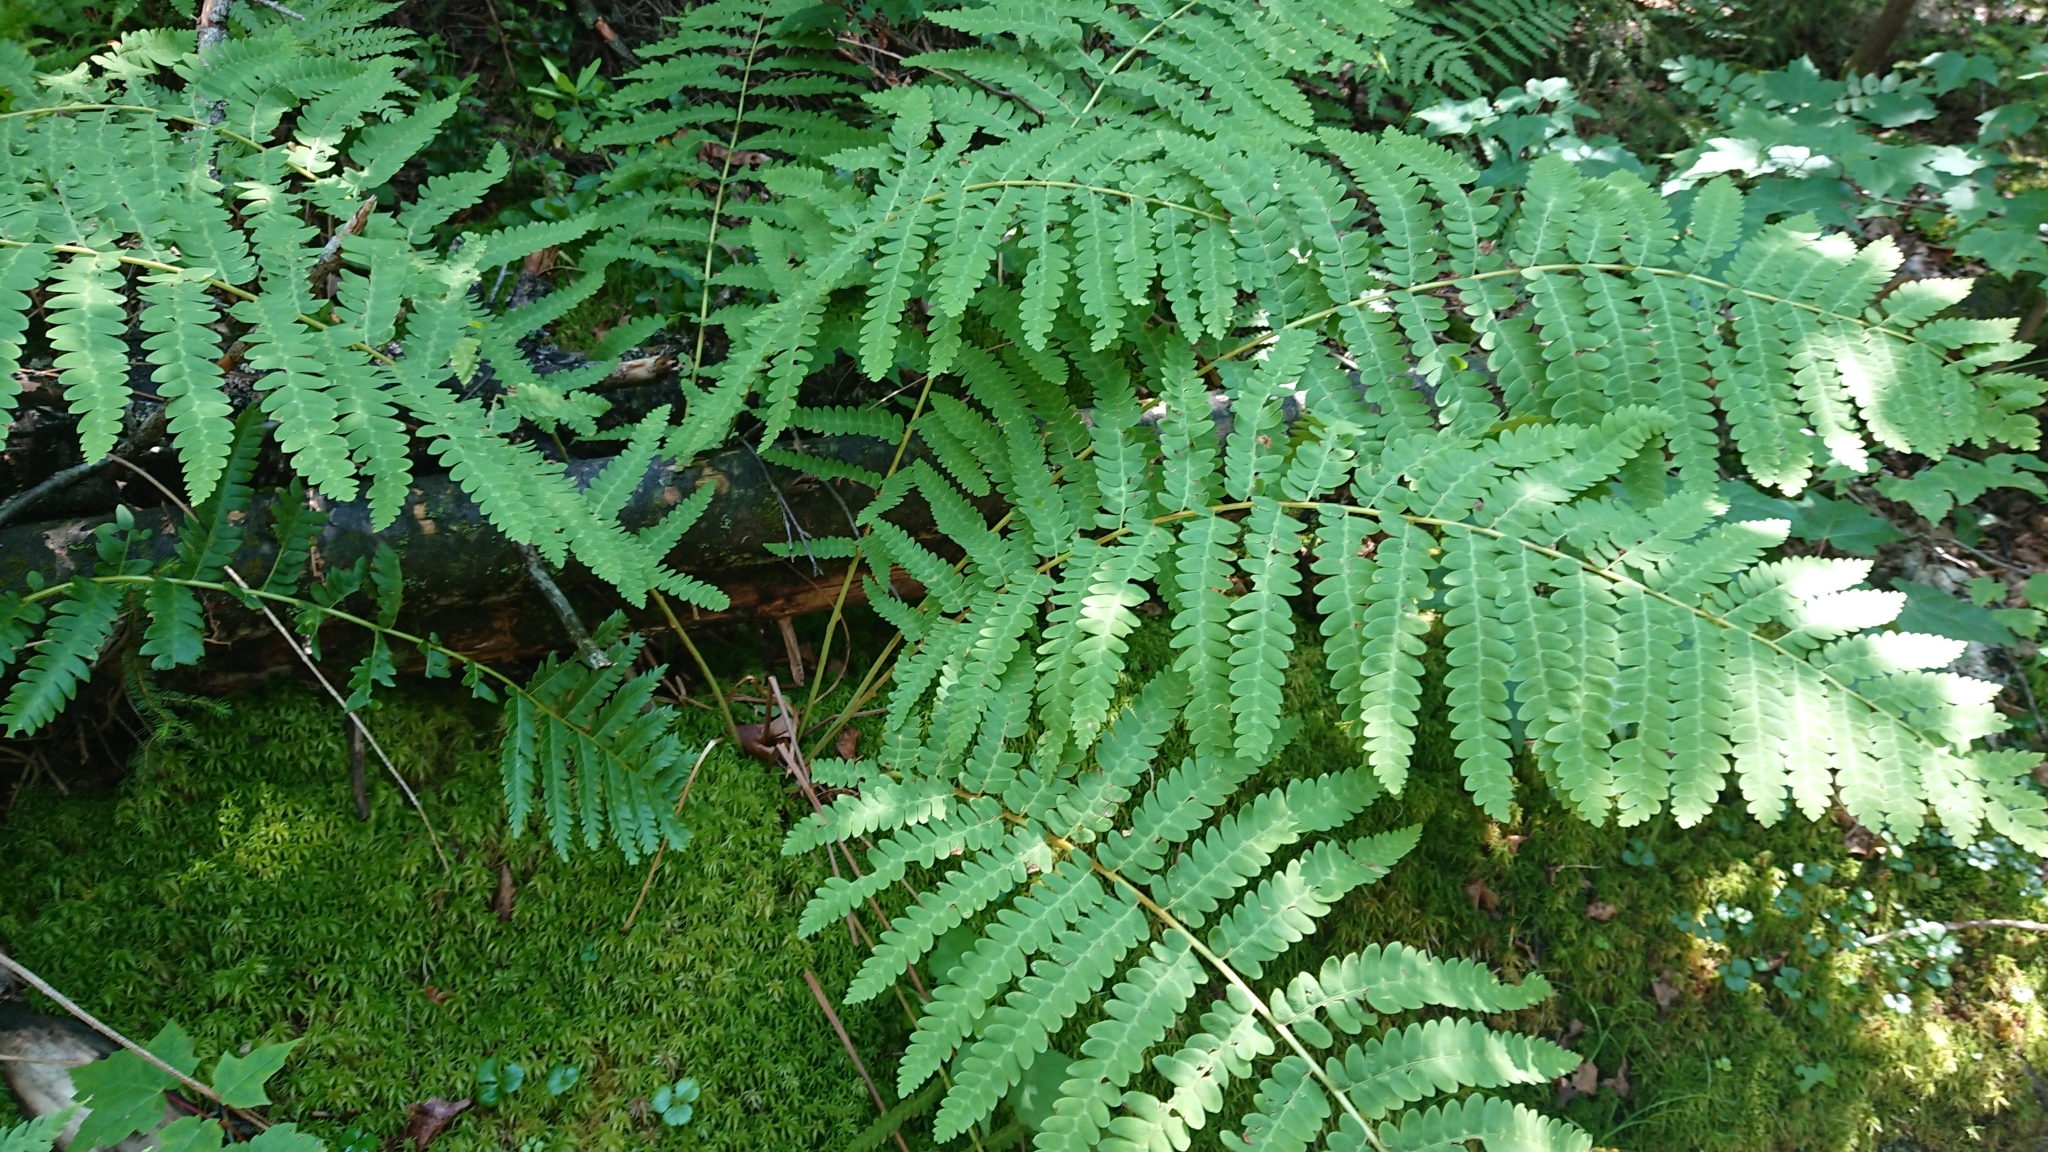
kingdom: Plantae
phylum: Tracheophyta
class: Polypodiopsida
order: Osmundales
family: Osmundaceae
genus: Claytosmunda
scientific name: Claytosmunda claytoniana
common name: Clayton's fern
